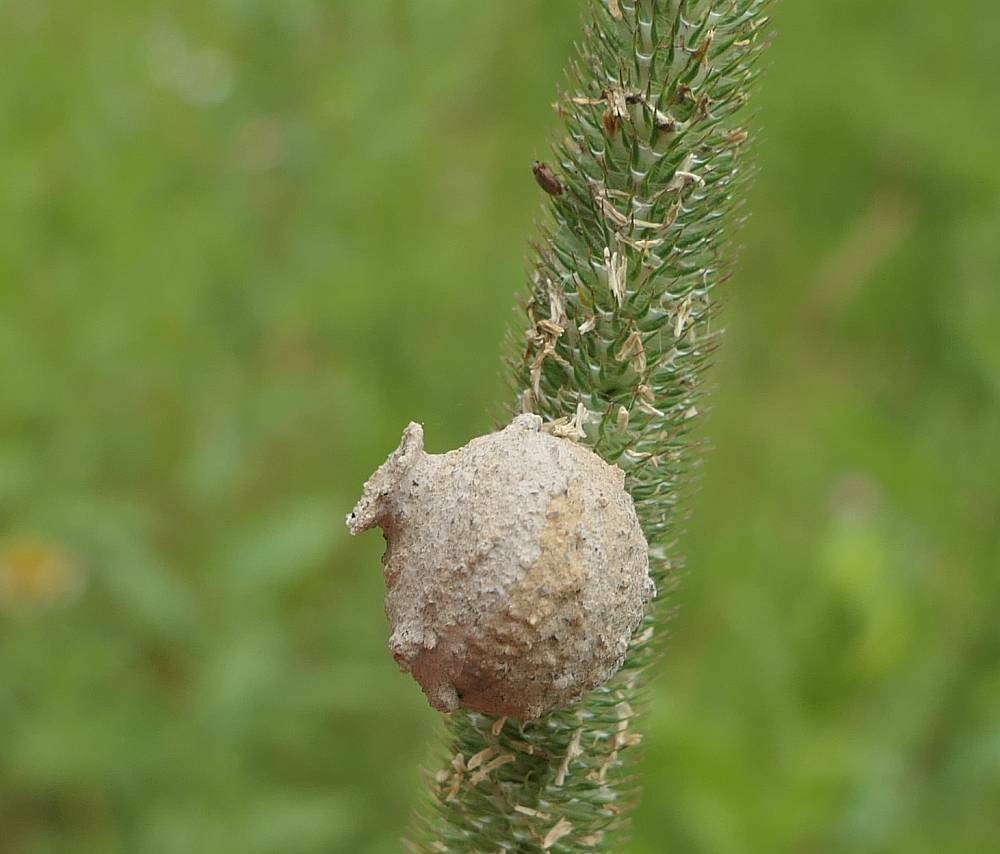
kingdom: Animalia
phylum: Arthropoda
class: Insecta
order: Hymenoptera
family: Vespidae
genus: Eumenes
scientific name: Eumenes
